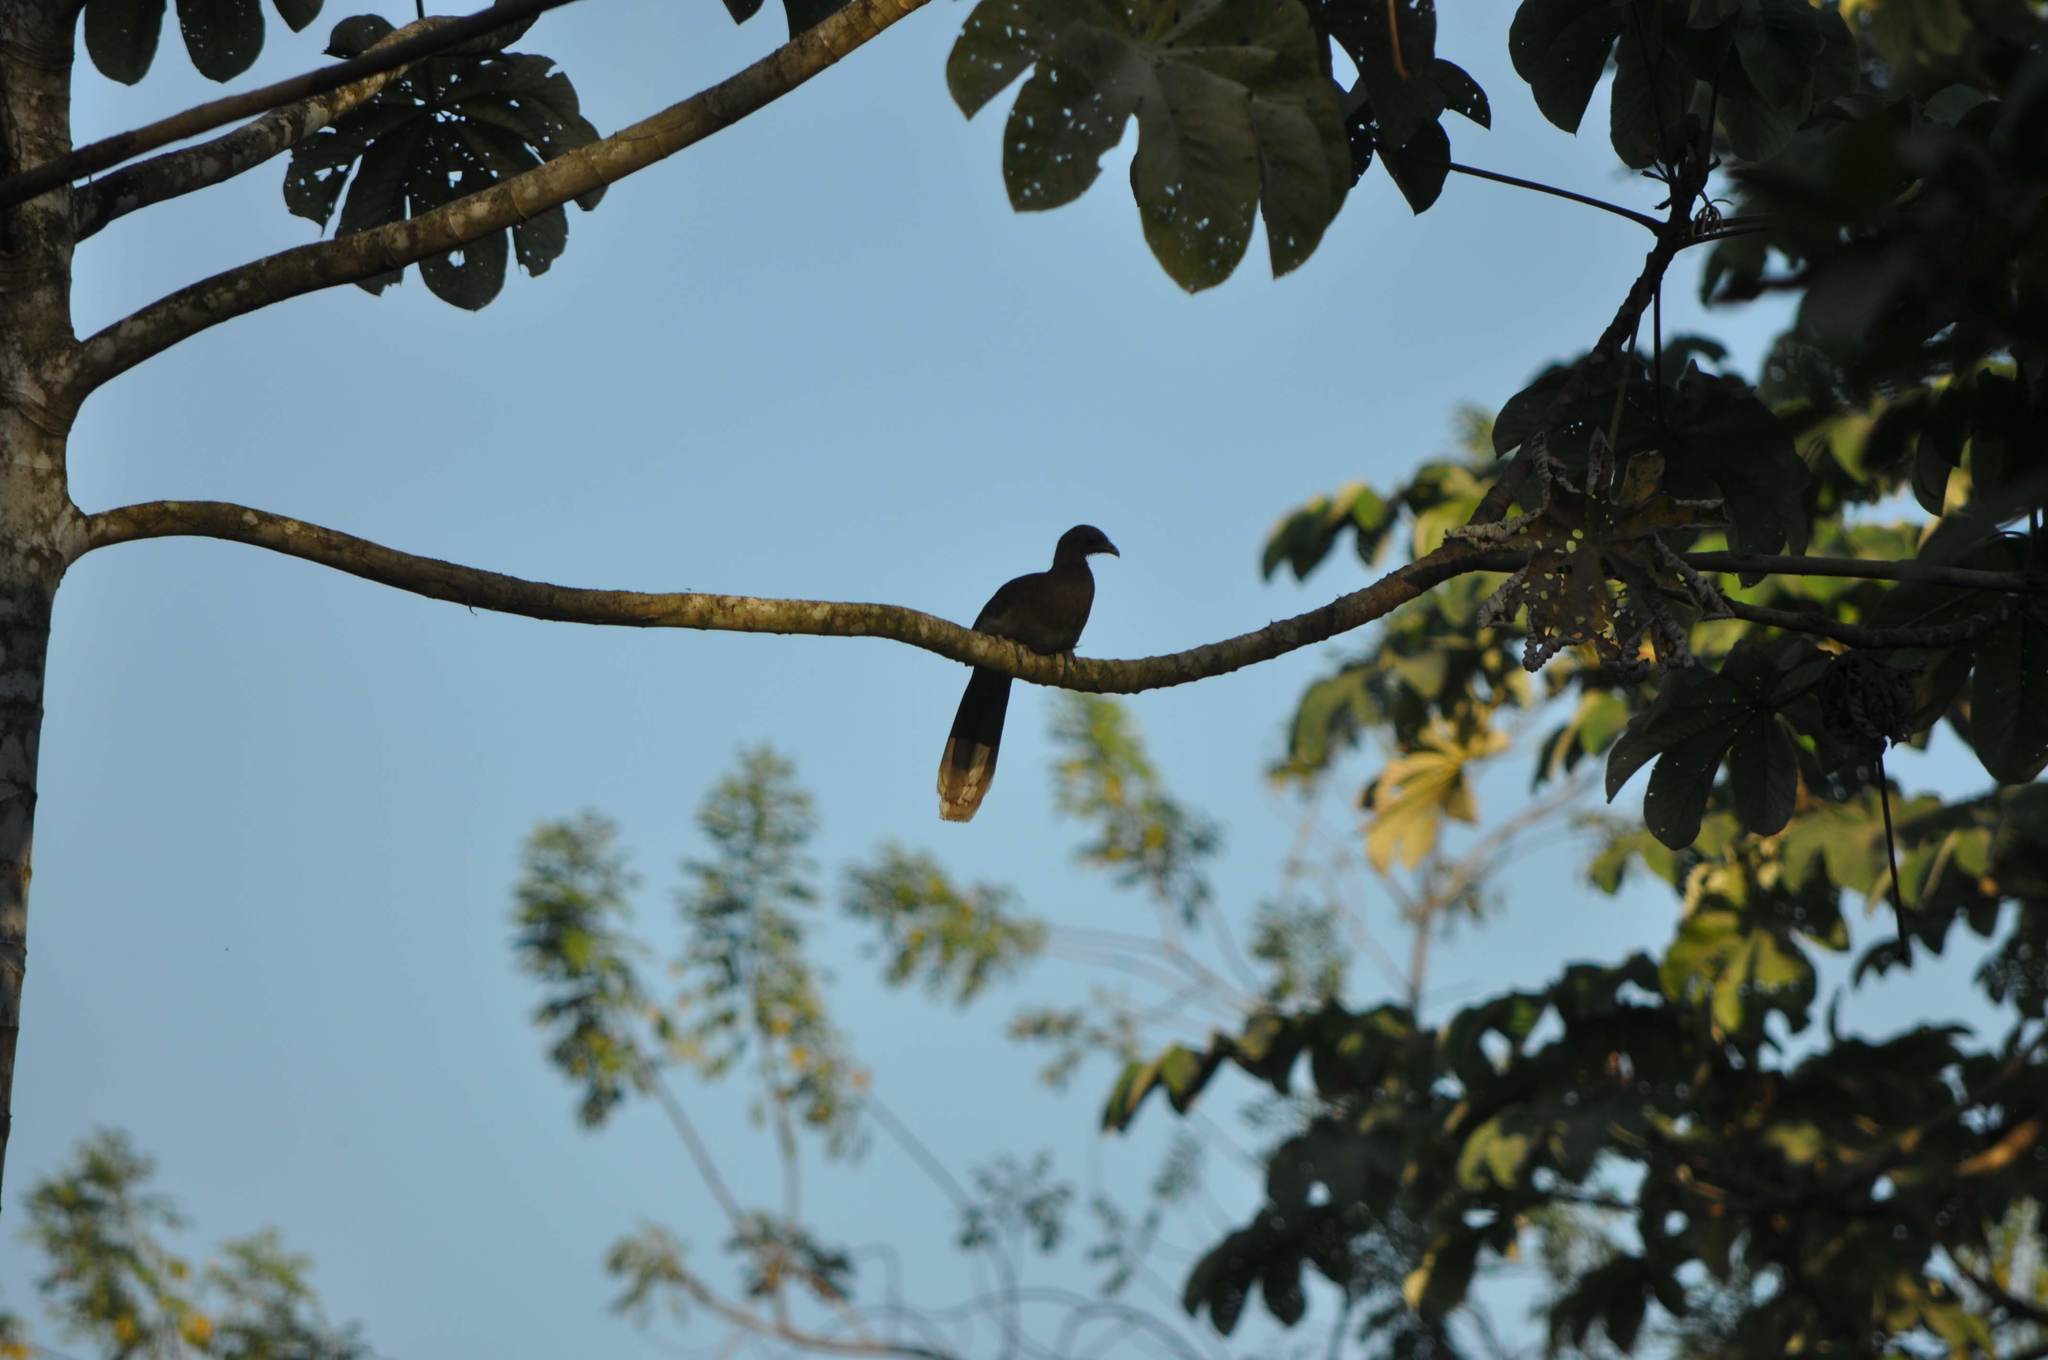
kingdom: Animalia
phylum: Chordata
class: Aves
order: Galliformes
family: Cracidae
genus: Ortalis
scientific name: Ortalis cinereiceps
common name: Grey-headed chachalaca
